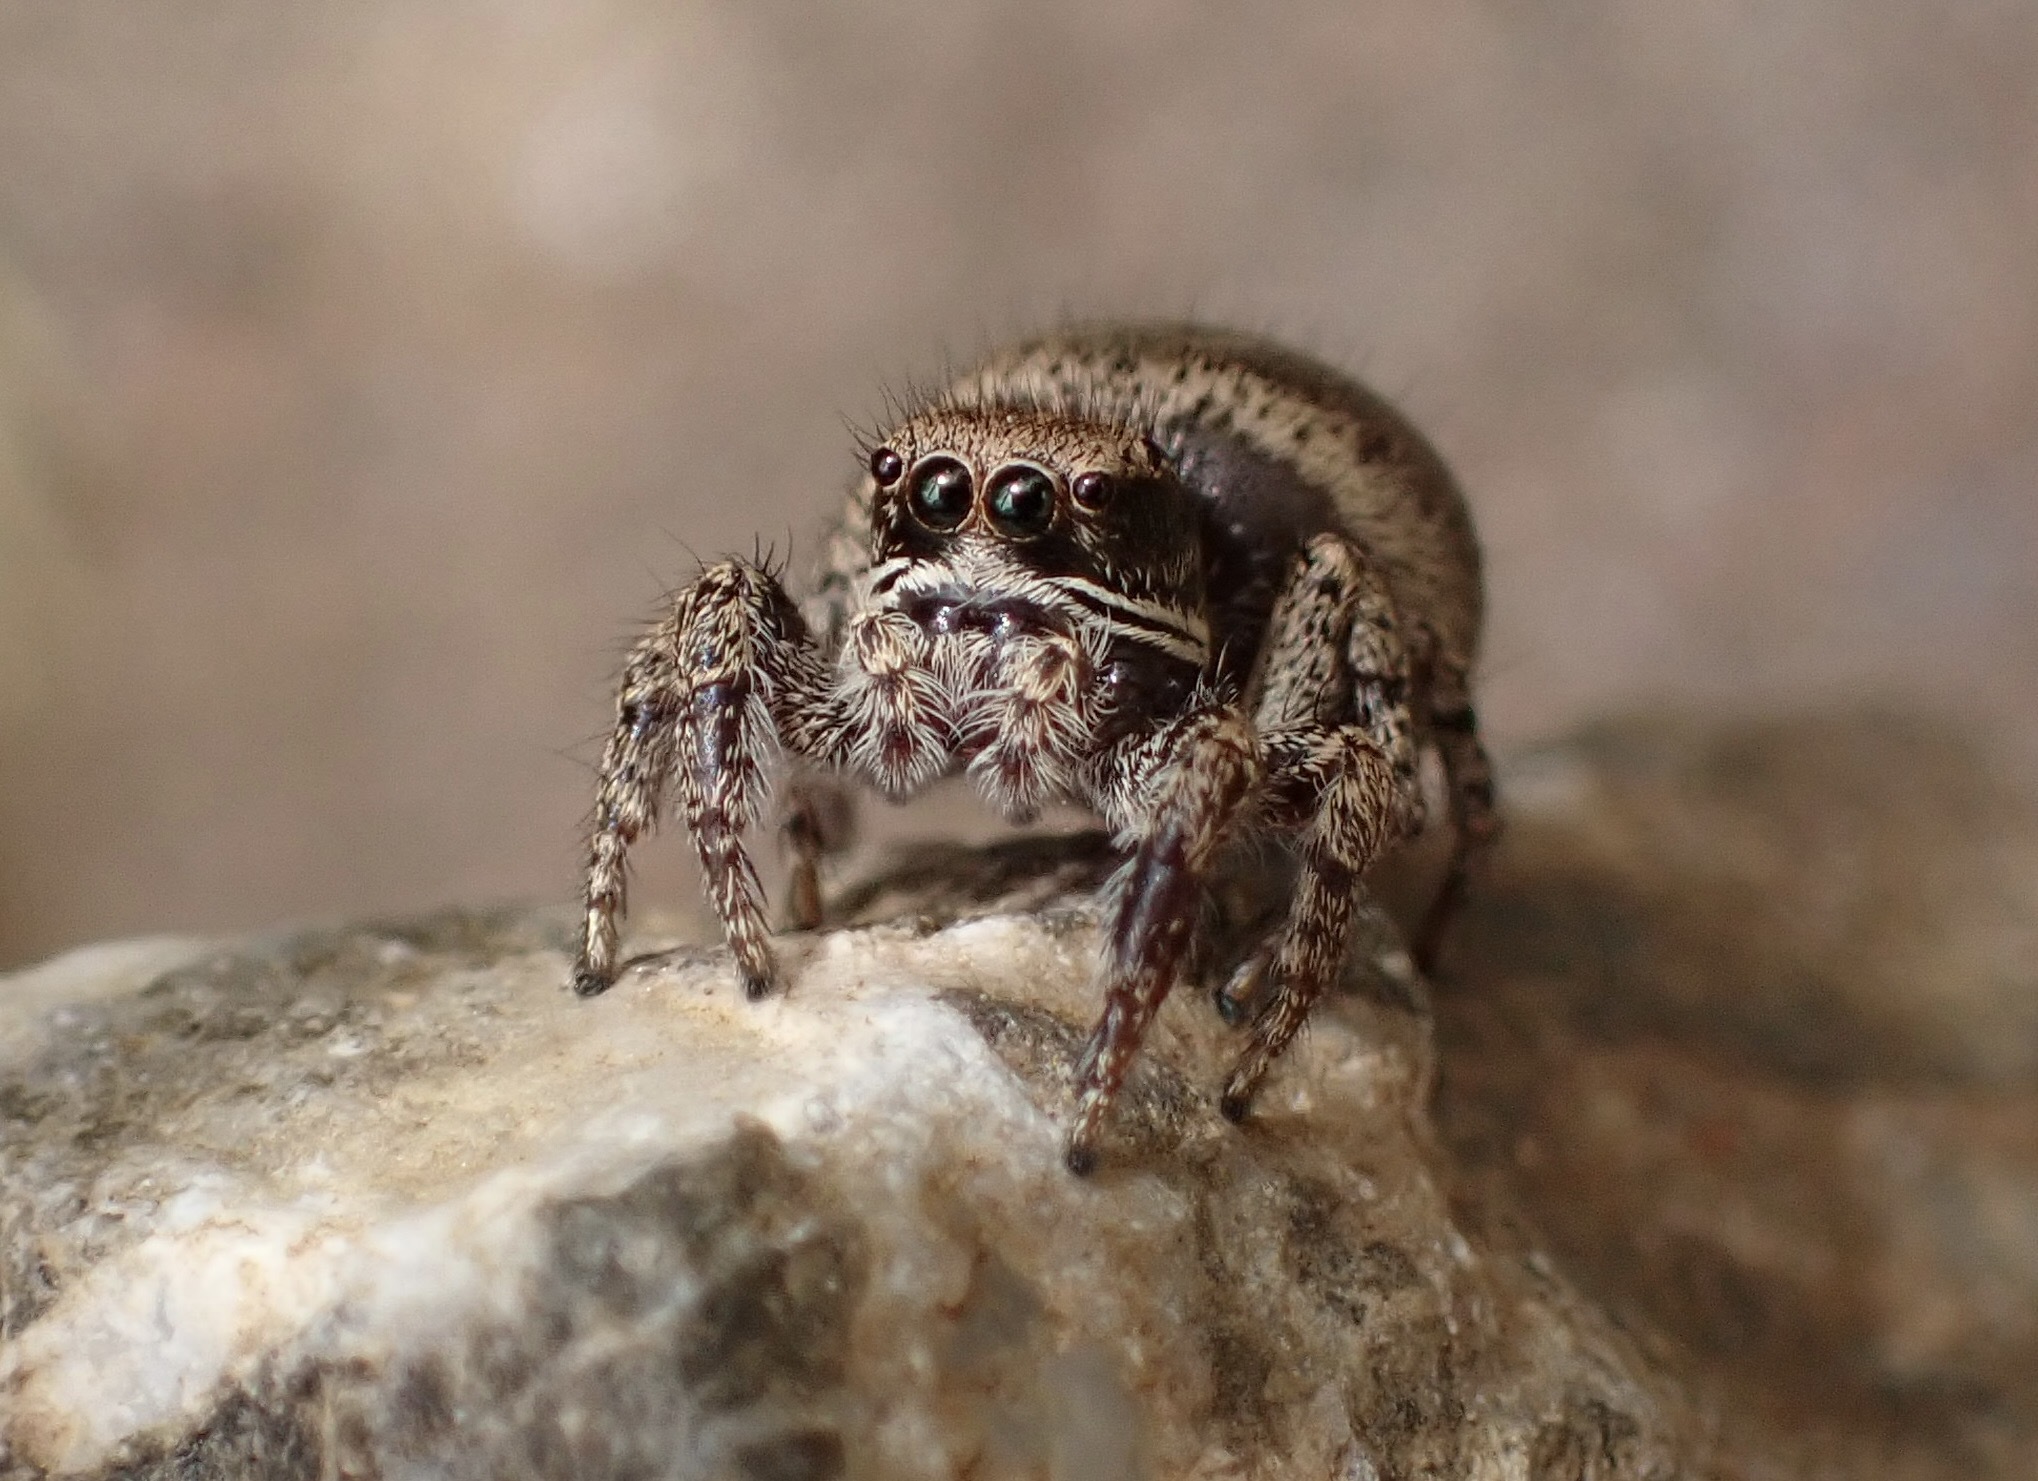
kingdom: Animalia
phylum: Arthropoda
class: Arachnida
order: Araneae
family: Salticidae
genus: Habronattus
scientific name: Habronattus oregonensis
